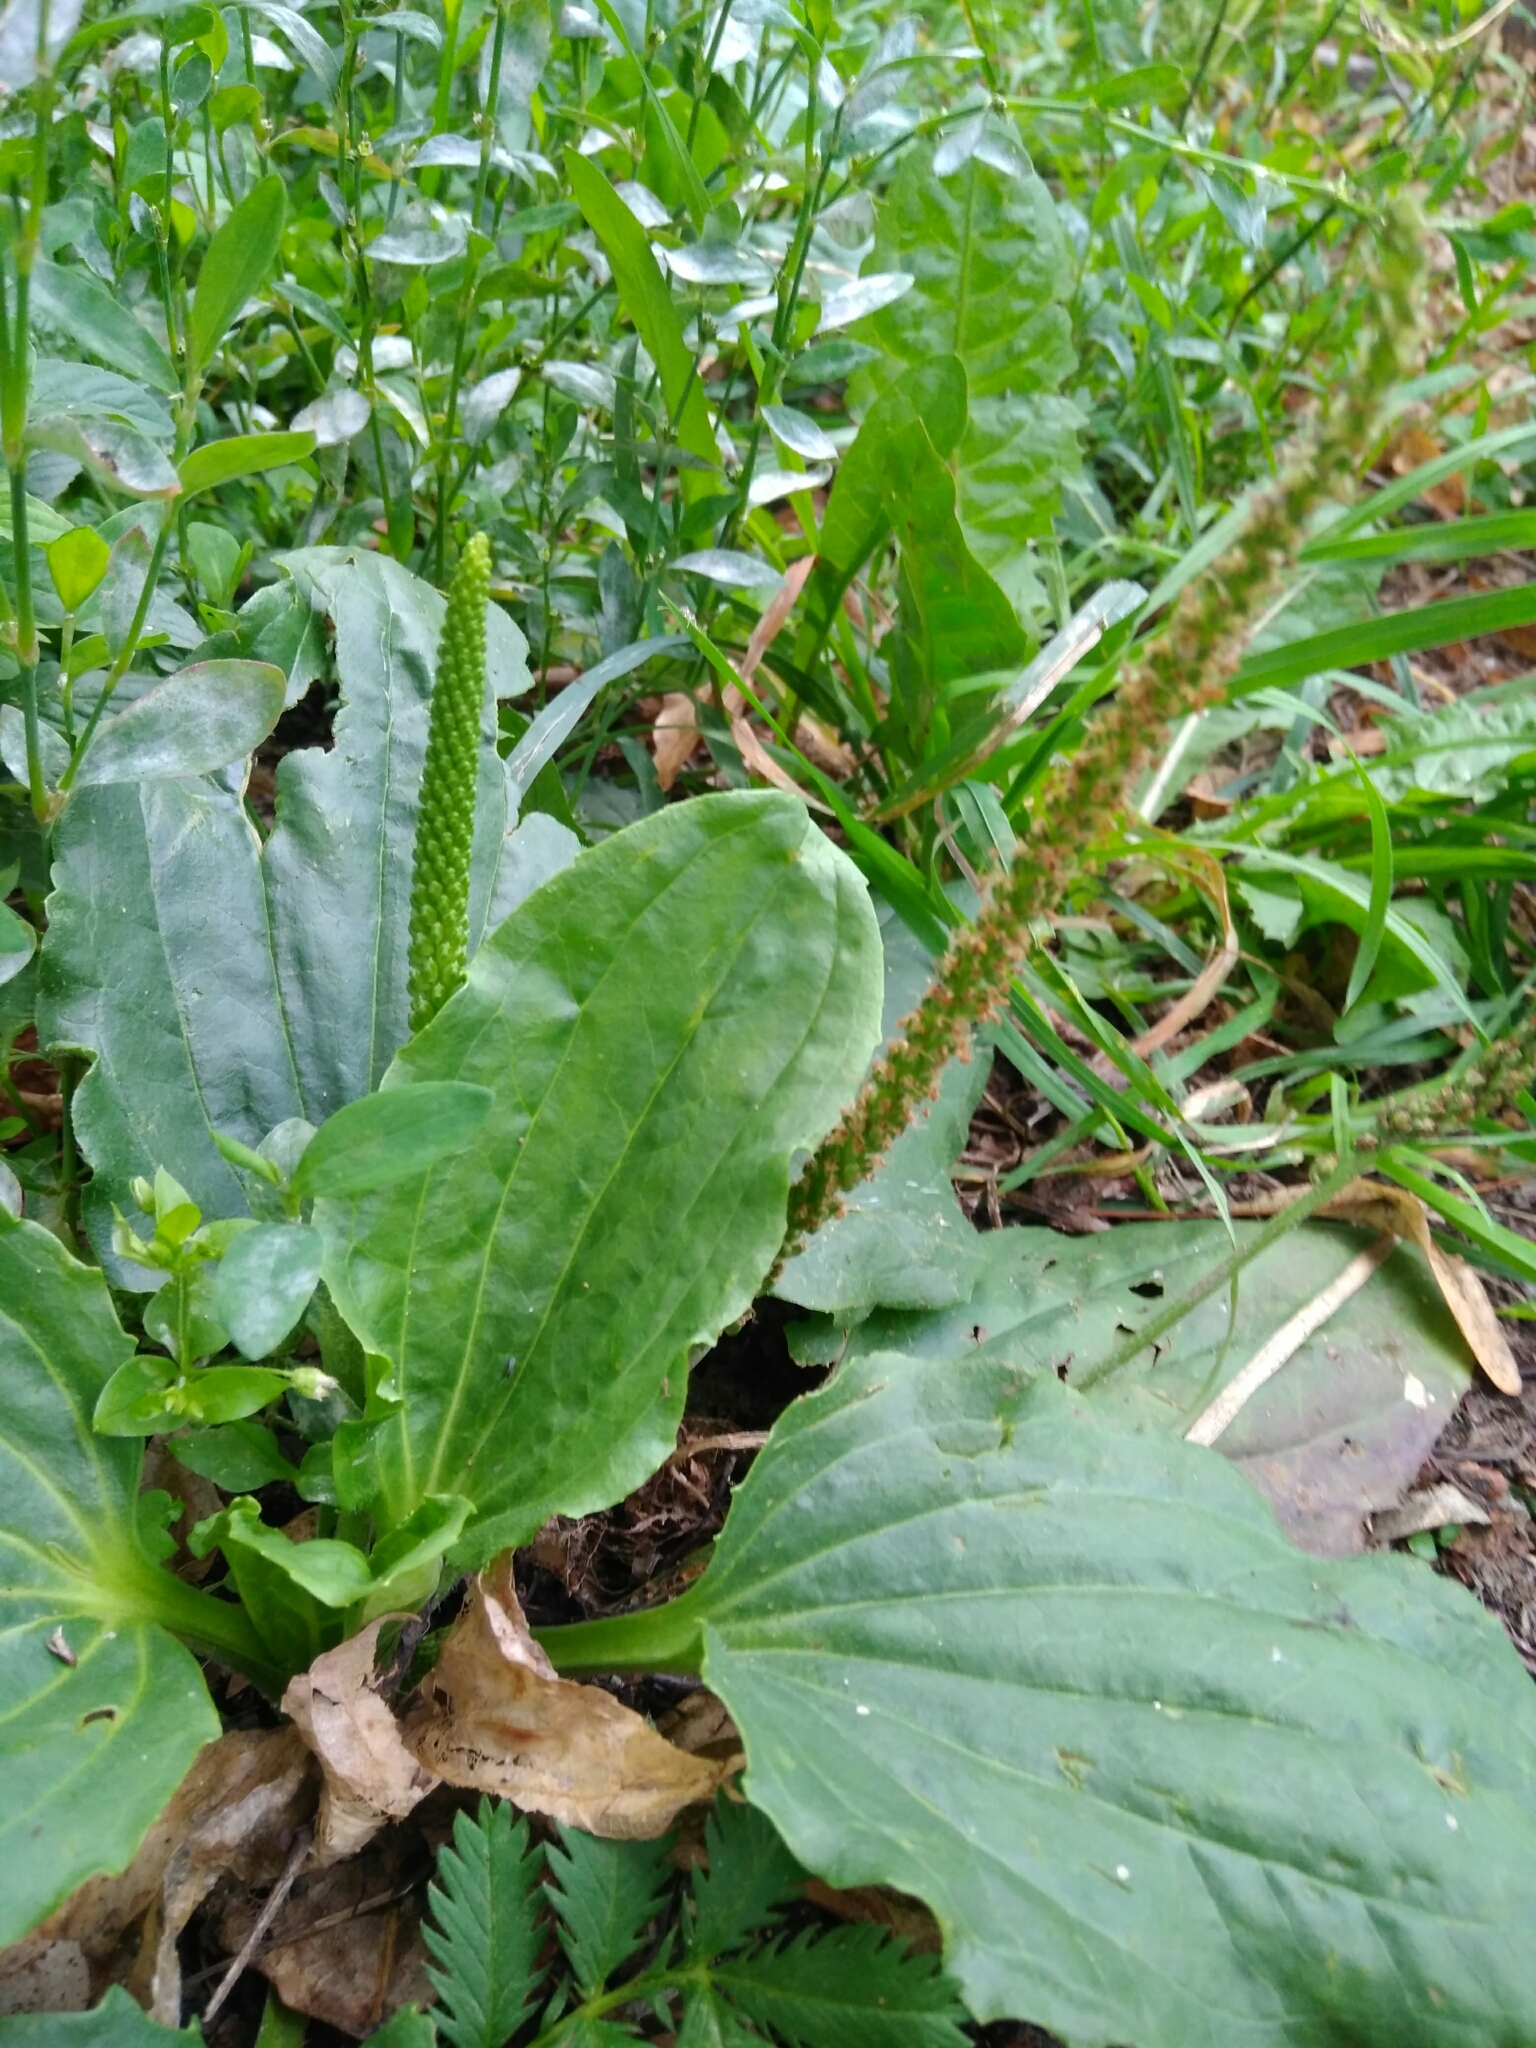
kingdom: Plantae
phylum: Tracheophyta
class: Magnoliopsida
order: Lamiales
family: Plantaginaceae
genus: Plantago
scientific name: Plantago major
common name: Common plantain
